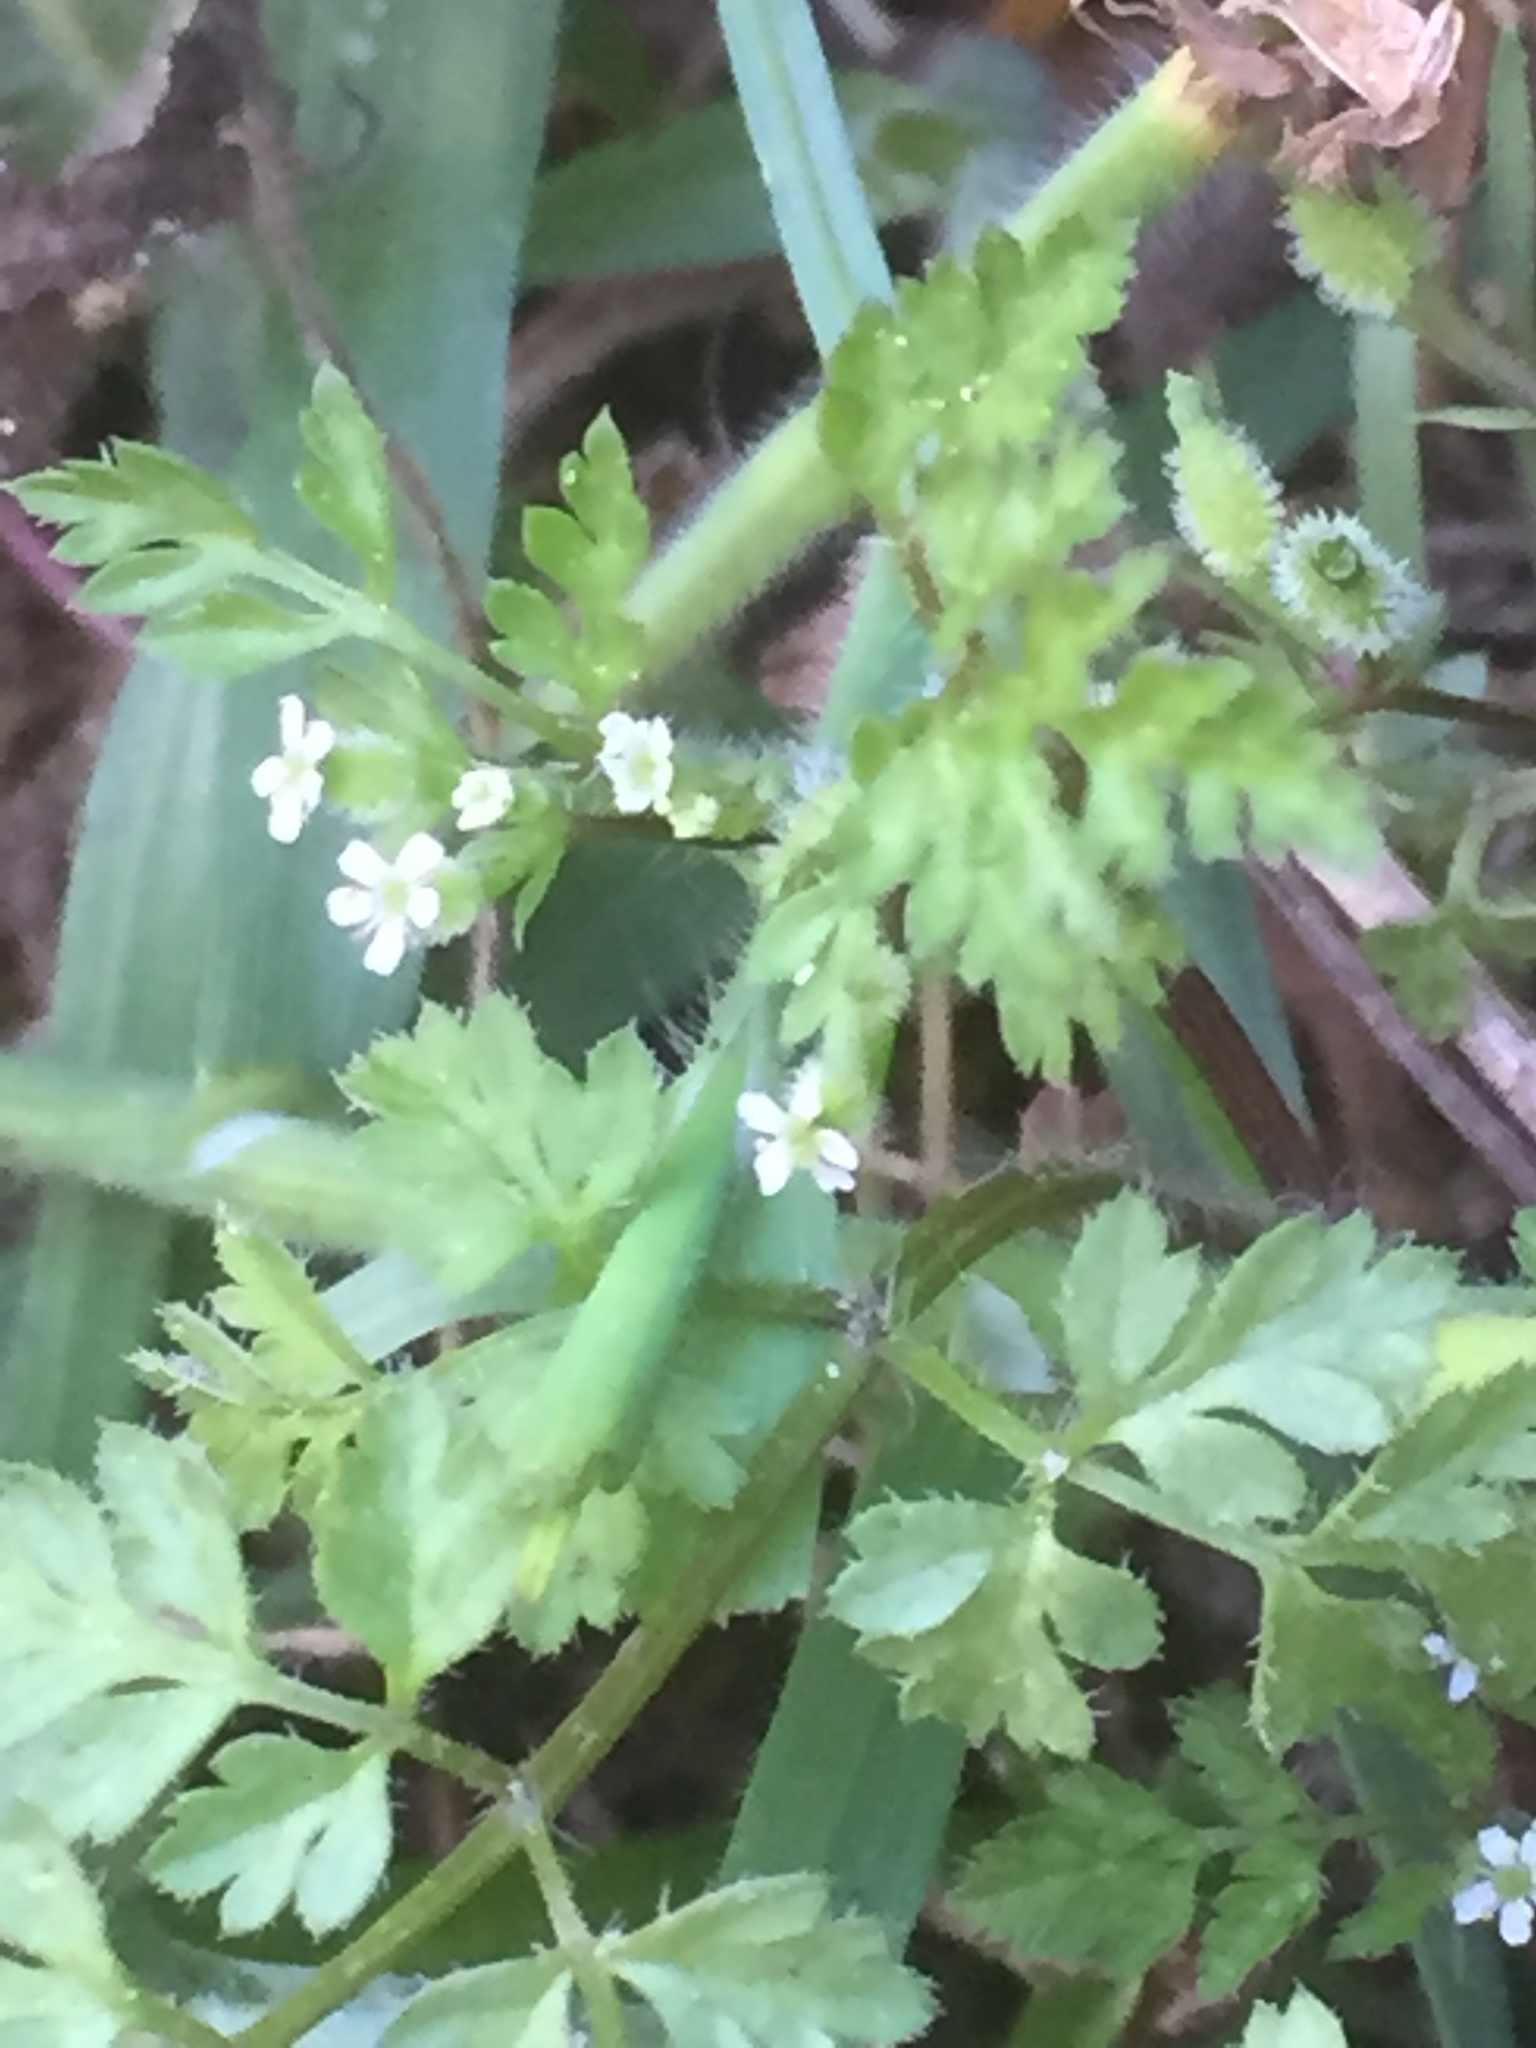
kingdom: Plantae
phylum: Tracheophyta
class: Magnoliopsida
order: Apiales
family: Apiaceae
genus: Anthriscus
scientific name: Anthriscus caucalis
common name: Bur chervil
